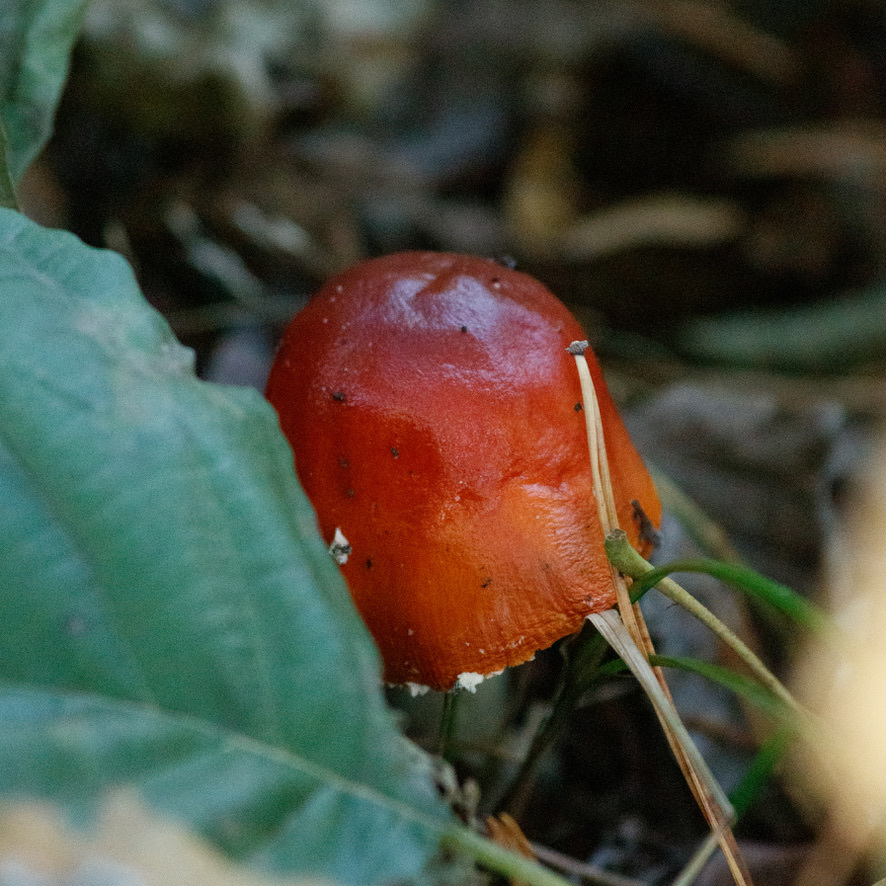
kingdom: Fungi
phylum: Basidiomycota
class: Agaricomycetes
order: Agaricales
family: Amanitaceae
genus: Amanita
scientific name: Amanita muscaria
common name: Fly agaric
